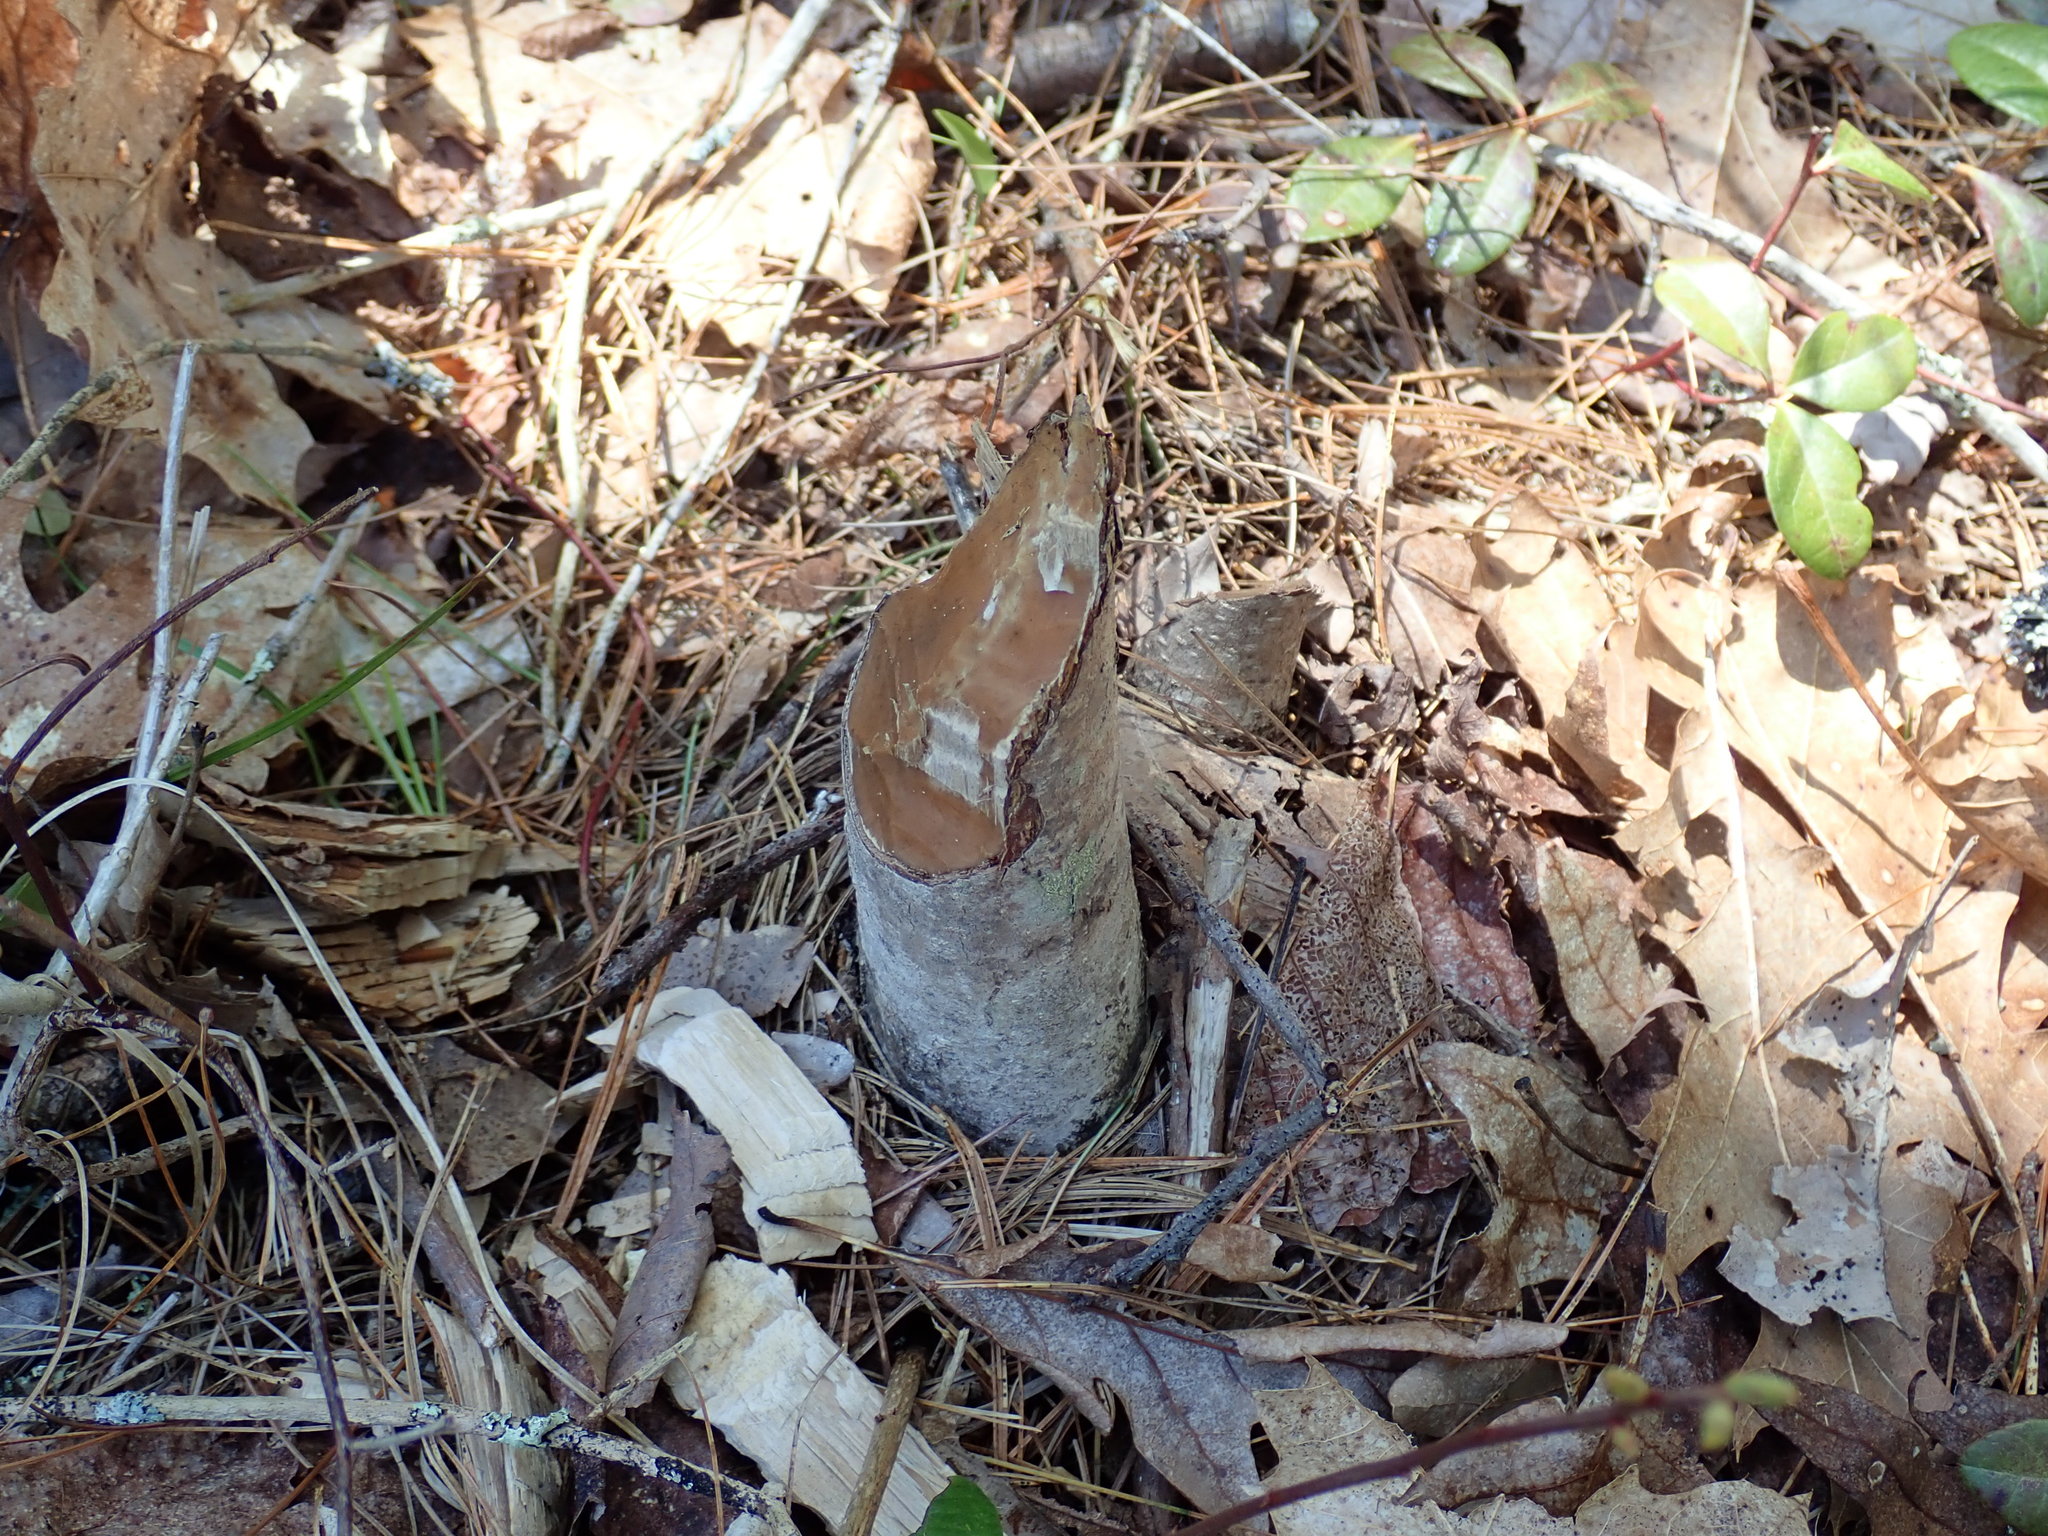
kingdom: Animalia
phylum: Chordata
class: Mammalia
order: Rodentia
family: Castoridae
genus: Castor
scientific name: Castor canadensis
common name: American beaver
